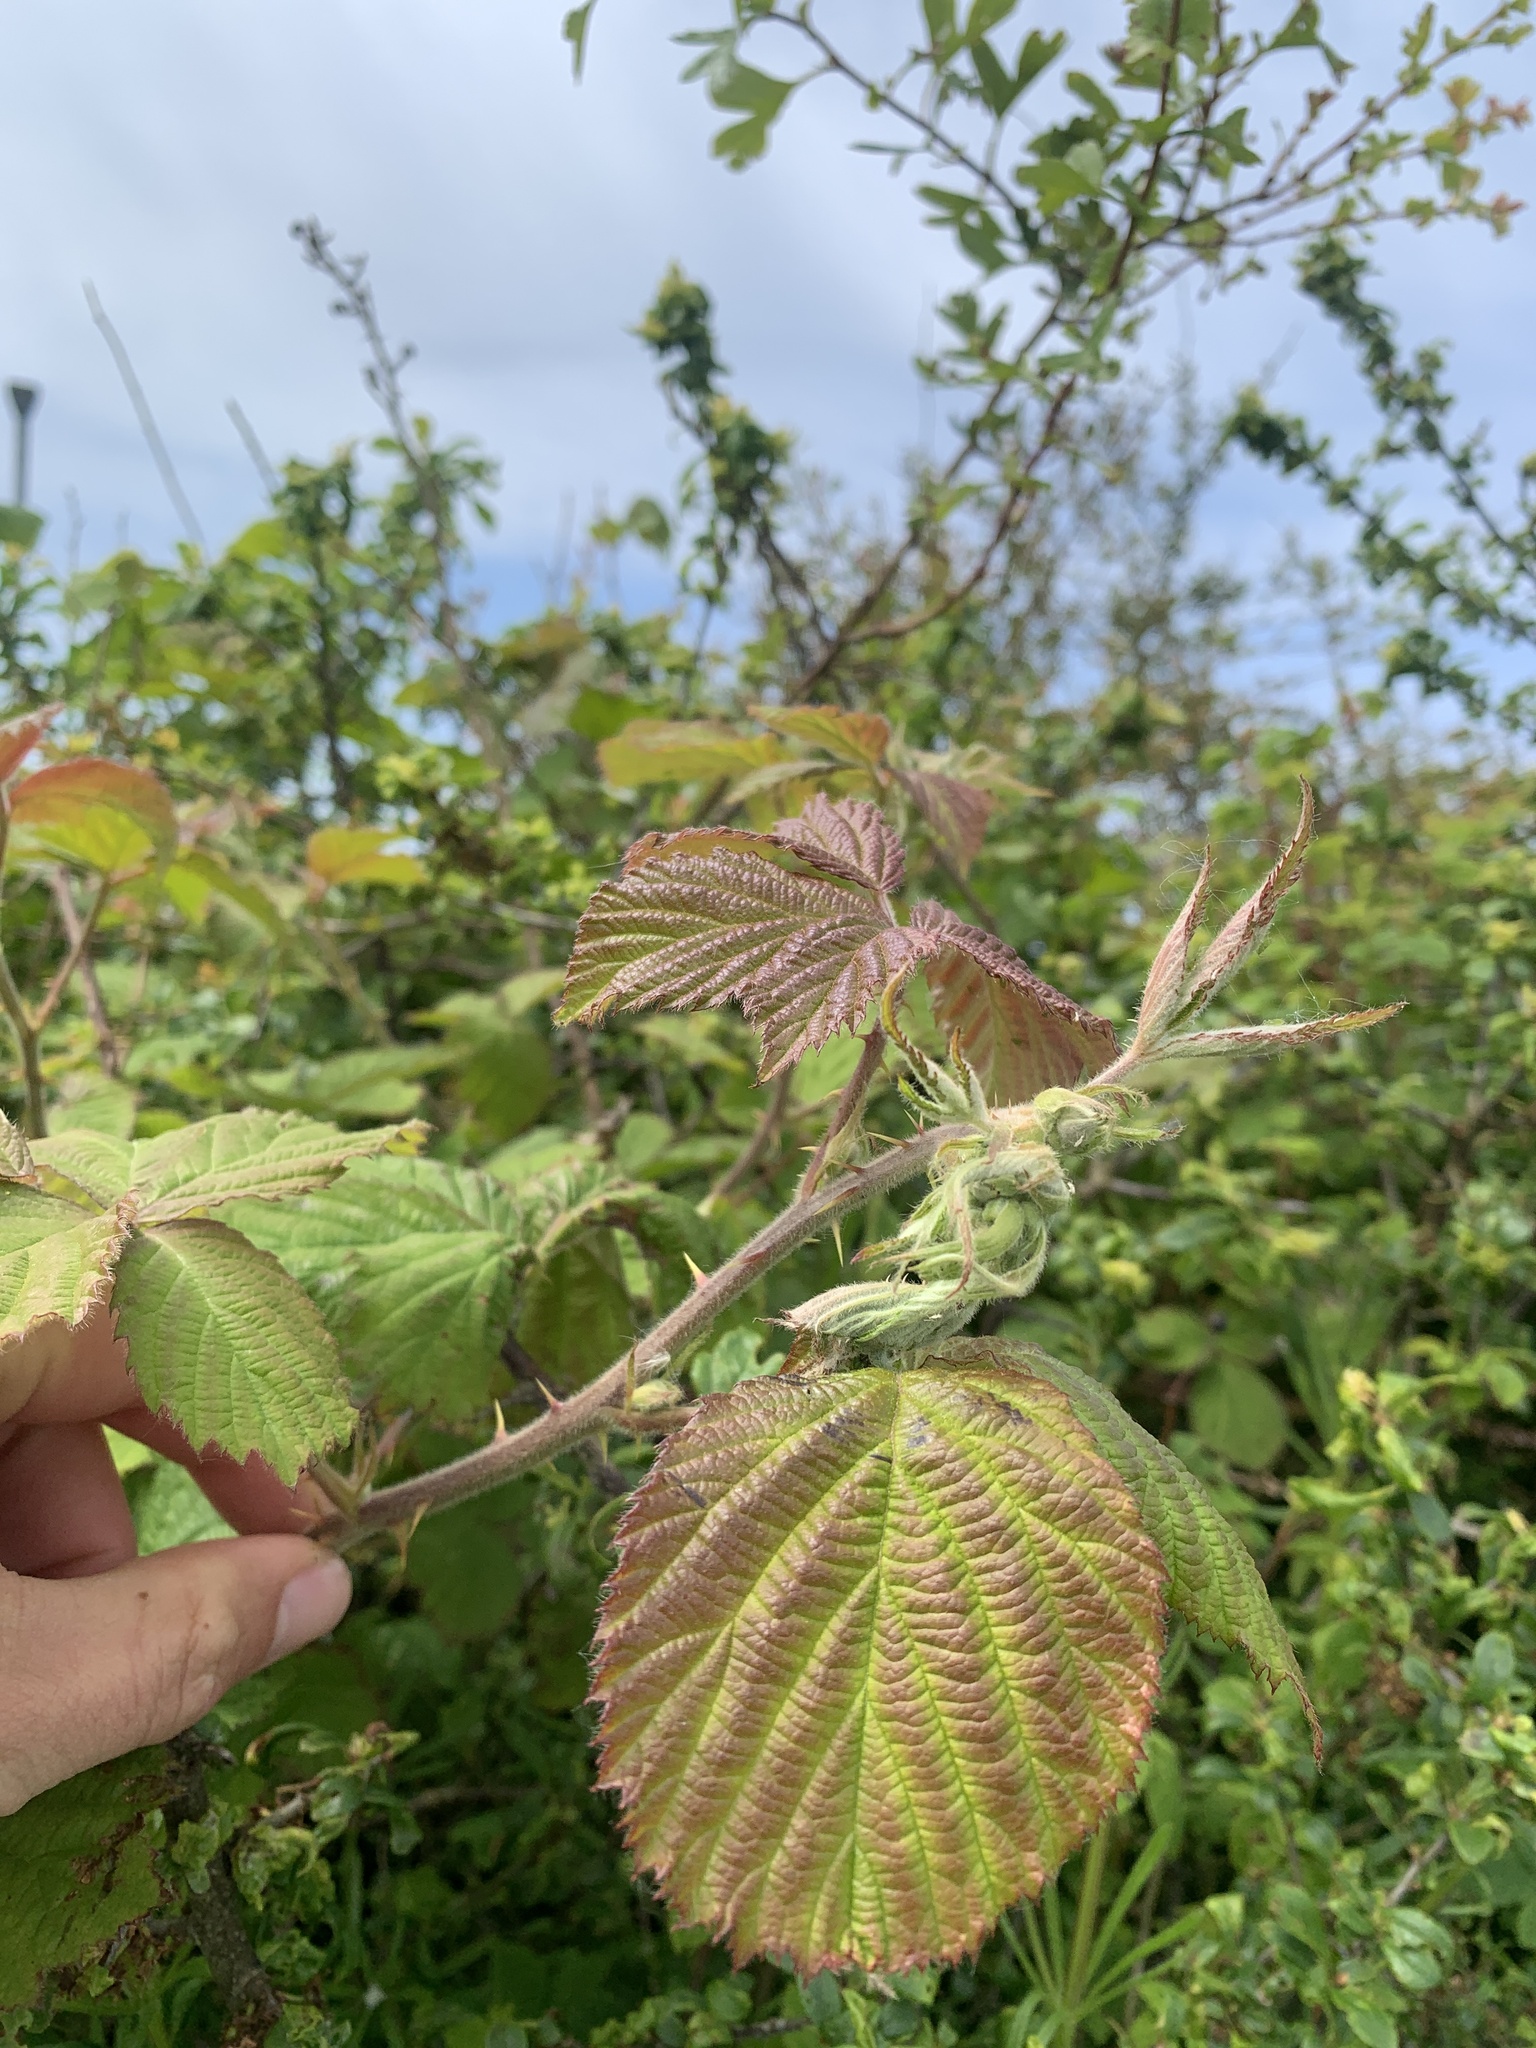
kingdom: Plantae
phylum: Tracheophyta
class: Magnoliopsida
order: Rosales
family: Rosaceae
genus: Rubus
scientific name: Rubus fruticosus
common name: Blackberry, bramble
